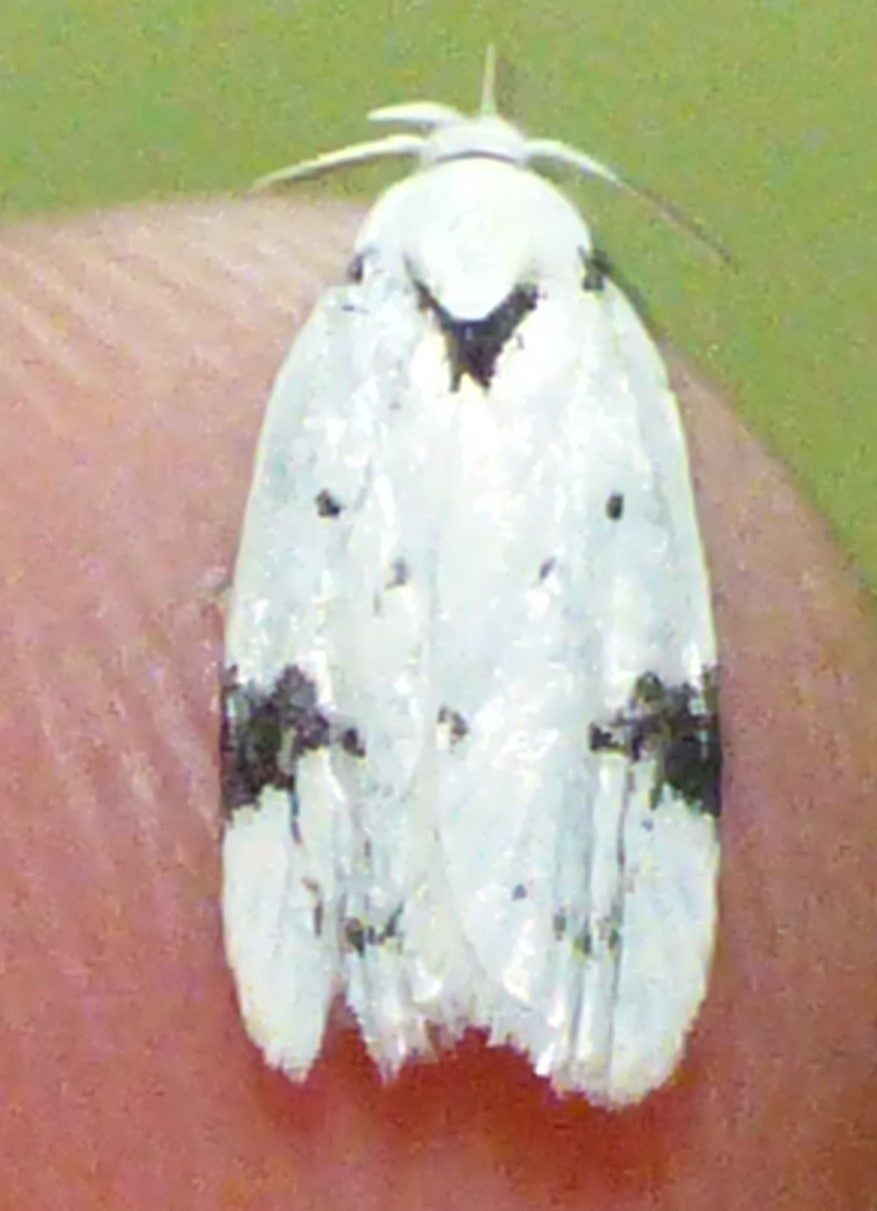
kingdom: Animalia
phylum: Arthropoda
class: Insecta
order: Lepidoptera
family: Oecophoridae
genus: Inga
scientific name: Inga sparsiciliella
